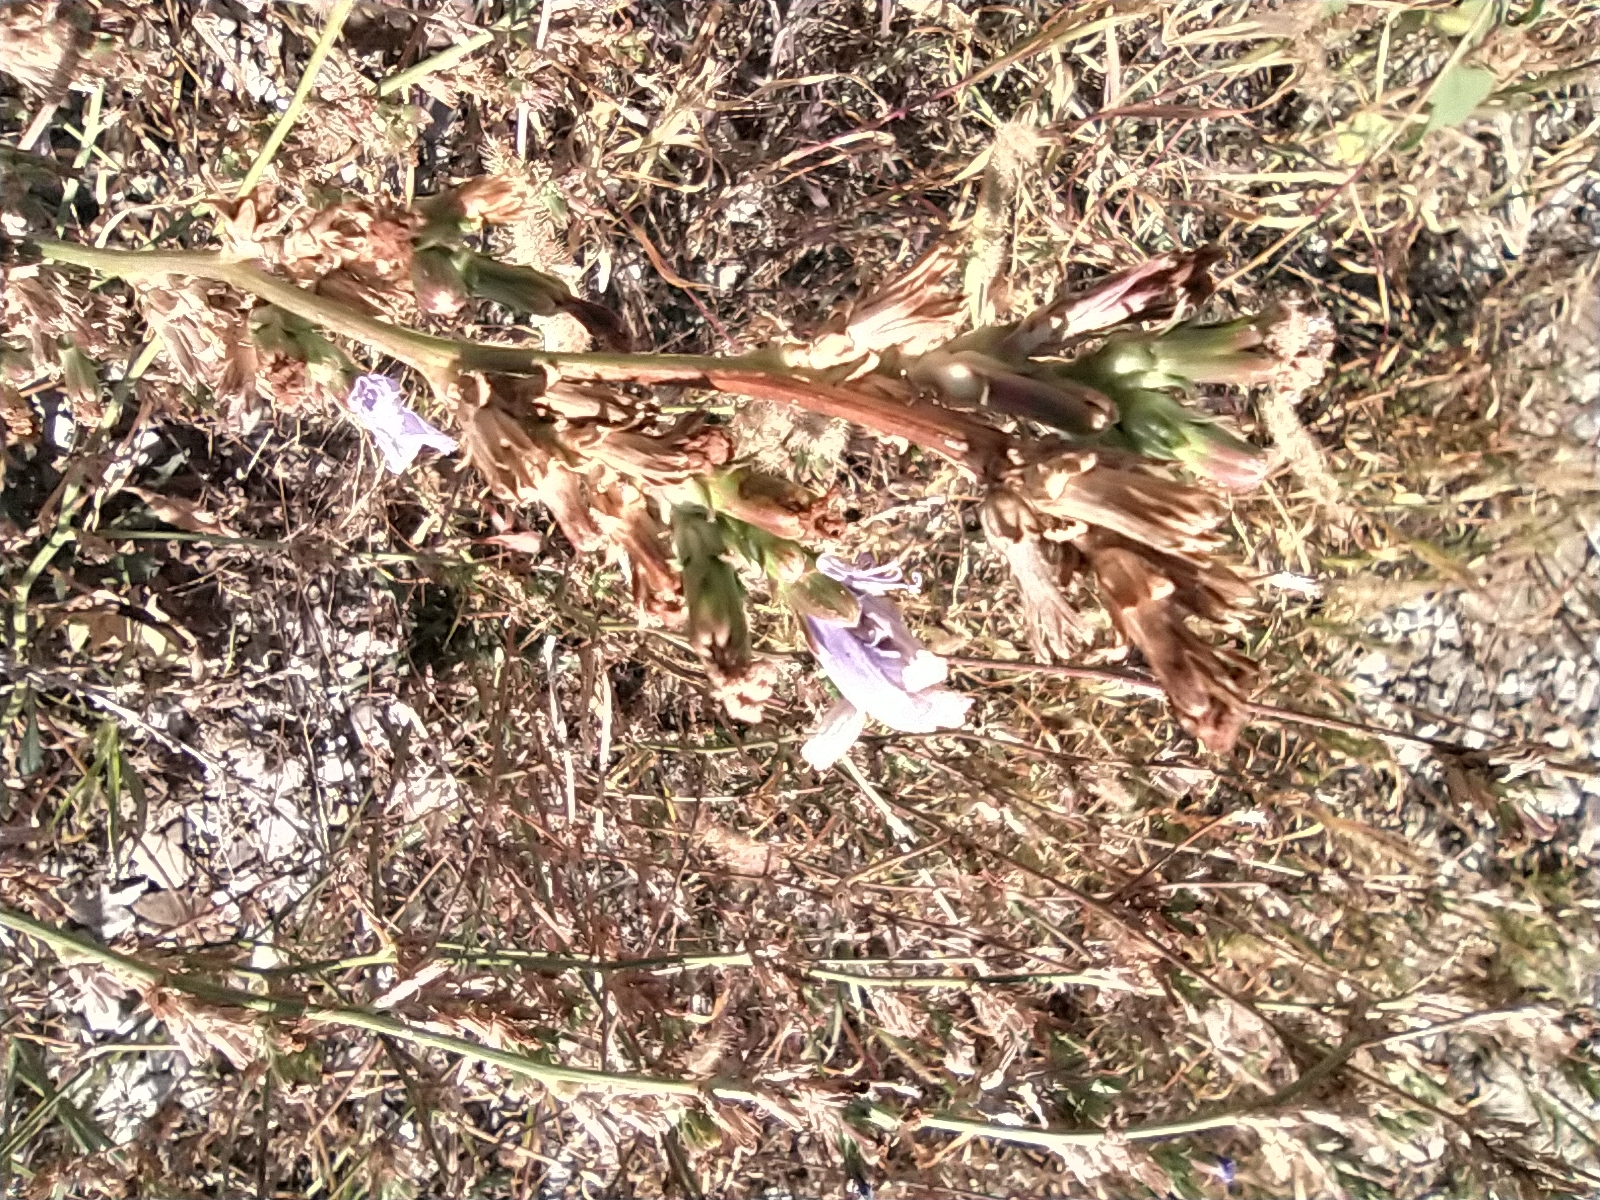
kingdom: Plantae
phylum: Tracheophyta
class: Magnoliopsida
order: Asterales
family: Asteraceae
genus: Cichorium
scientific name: Cichorium intybus
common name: Chicory
